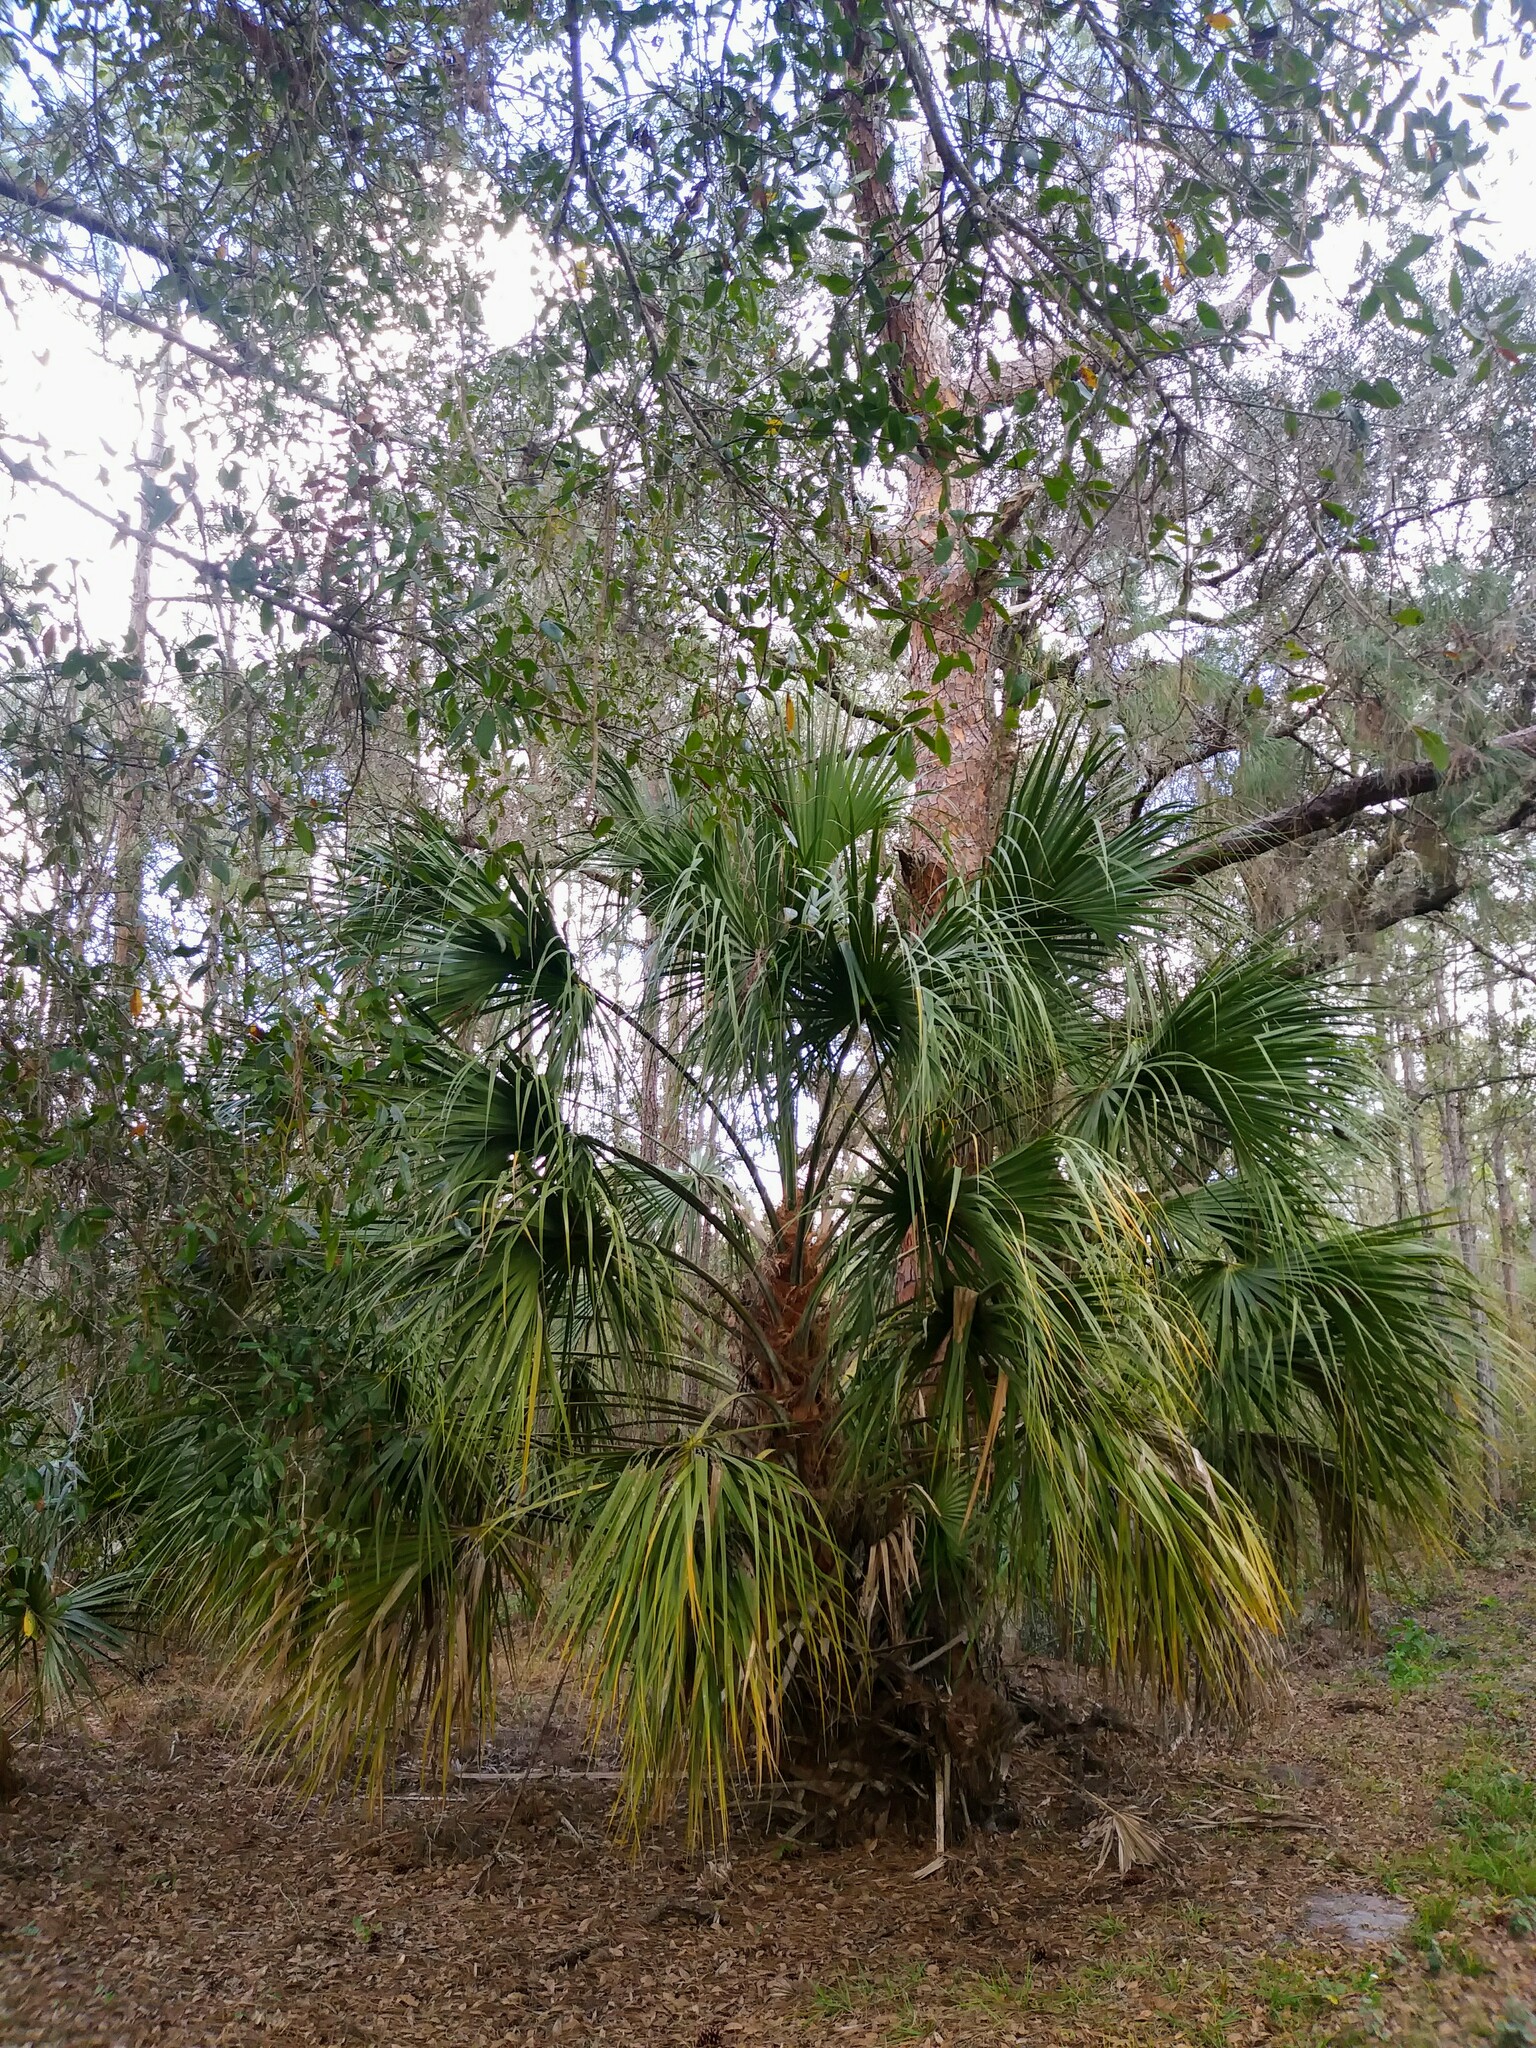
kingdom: Plantae
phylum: Tracheophyta
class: Liliopsida
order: Arecales
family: Arecaceae
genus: Sabal
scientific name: Sabal palmetto
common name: Blue palmetto
